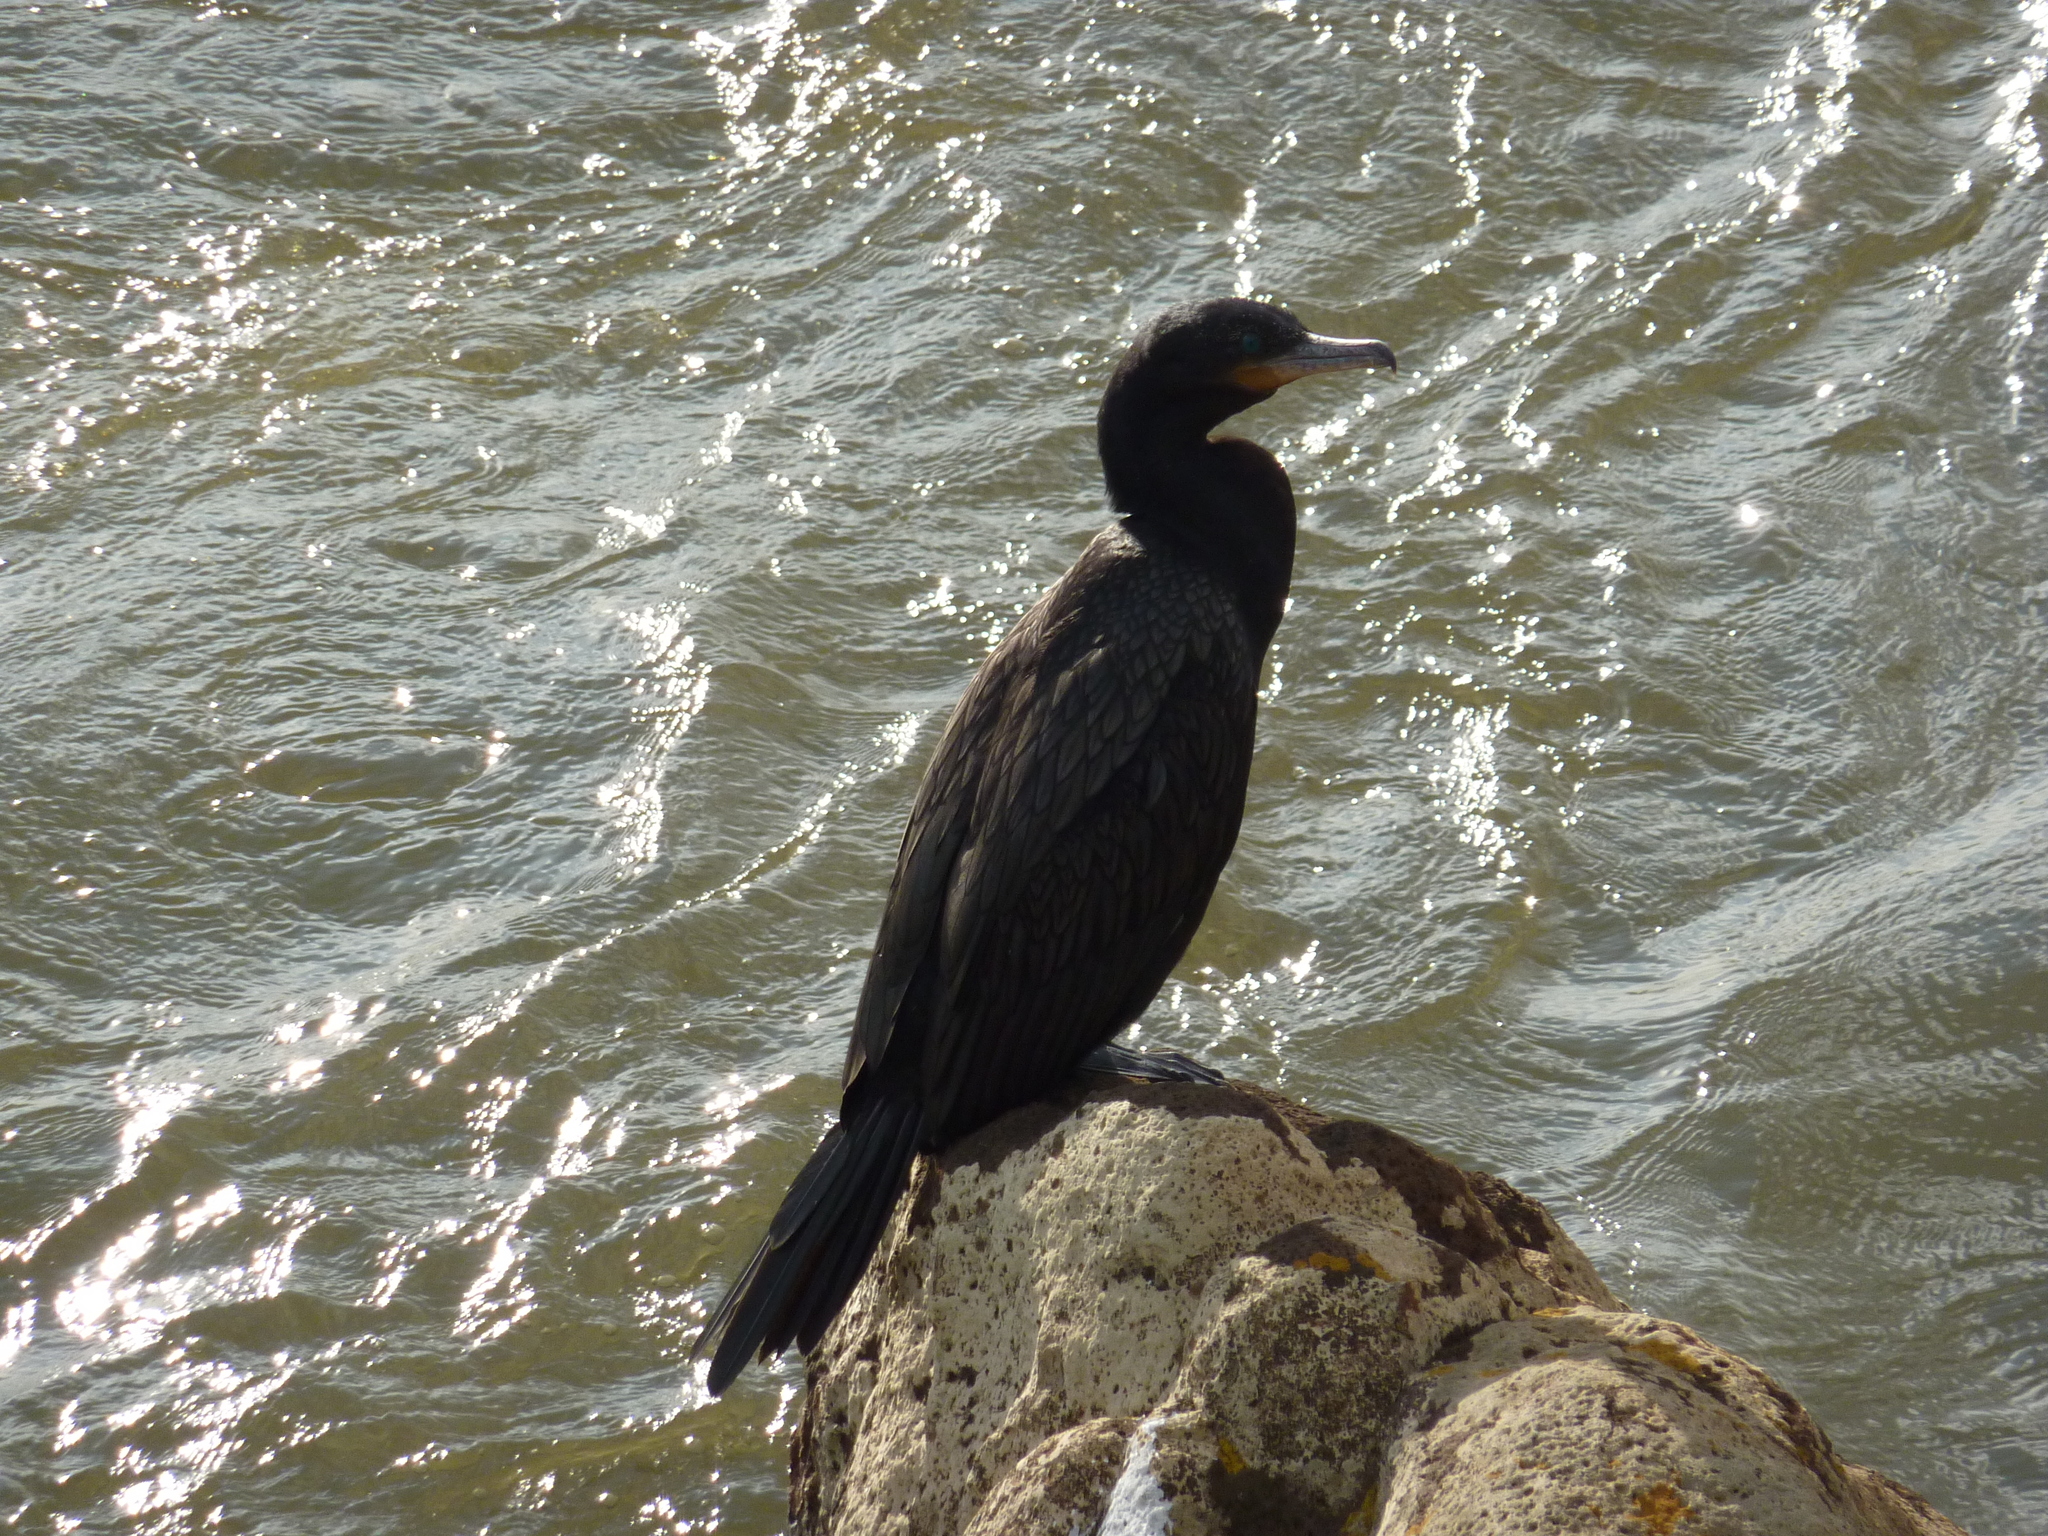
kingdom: Animalia
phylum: Chordata
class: Aves
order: Suliformes
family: Phalacrocoracidae
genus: Phalacrocorax
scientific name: Phalacrocorax brasilianus
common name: Neotropic cormorant
